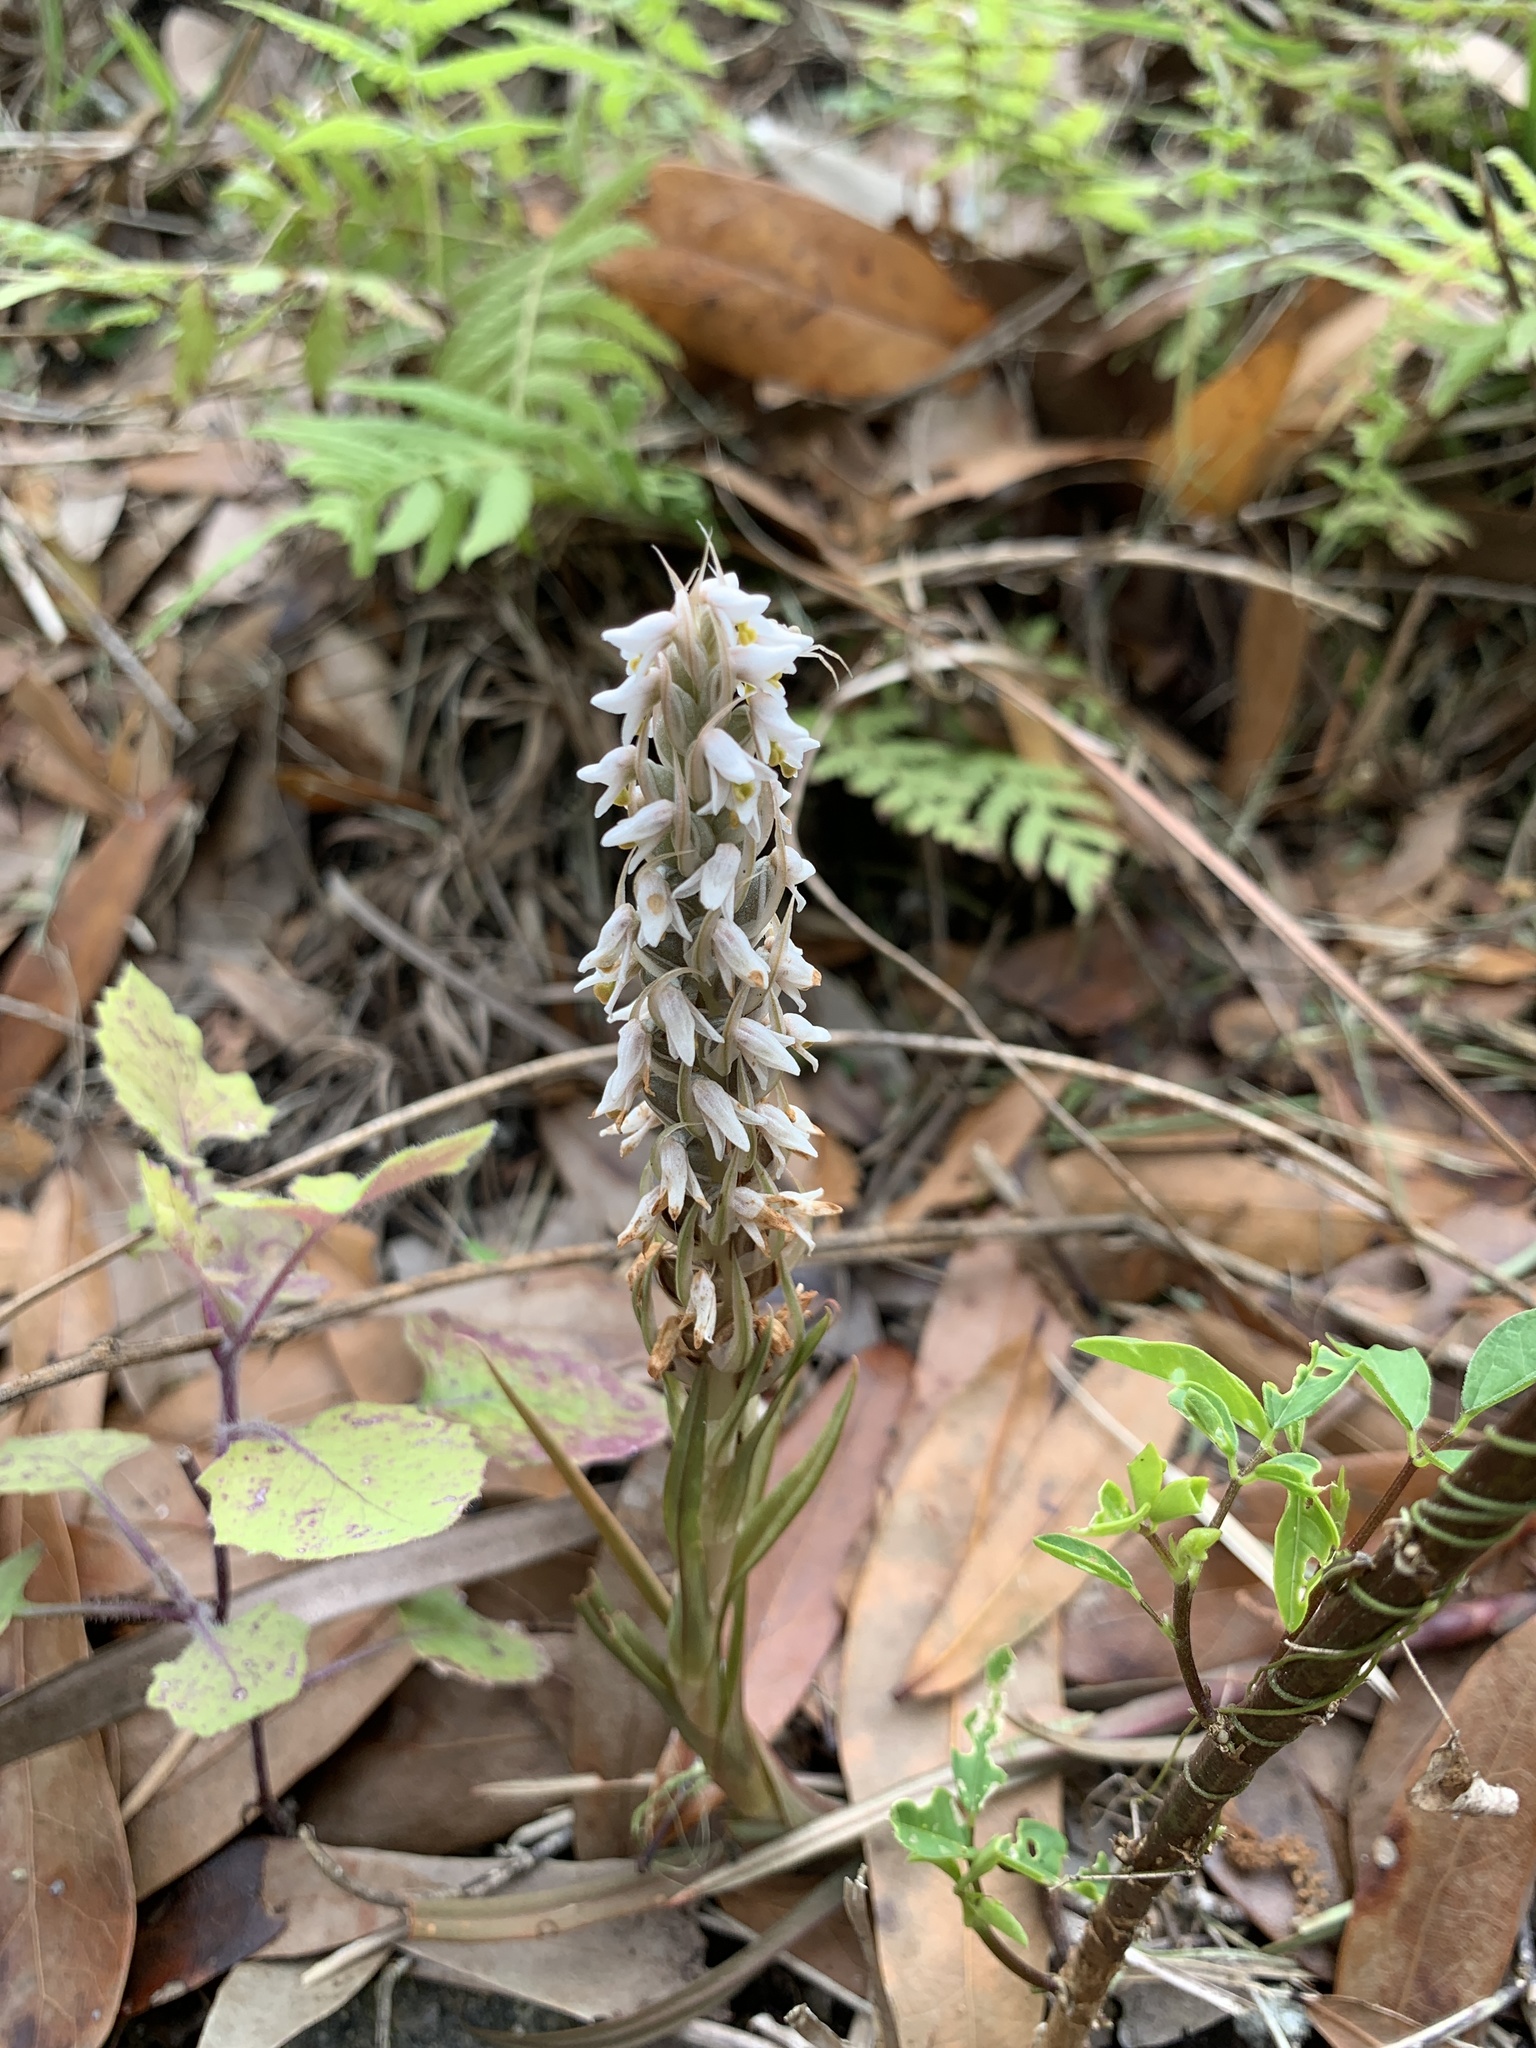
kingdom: Plantae
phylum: Tracheophyta
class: Liliopsida
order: Asparagales
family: Orchidaceae
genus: Zeuxine
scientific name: Zeuxine strateumatica
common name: Soldier's orchid
